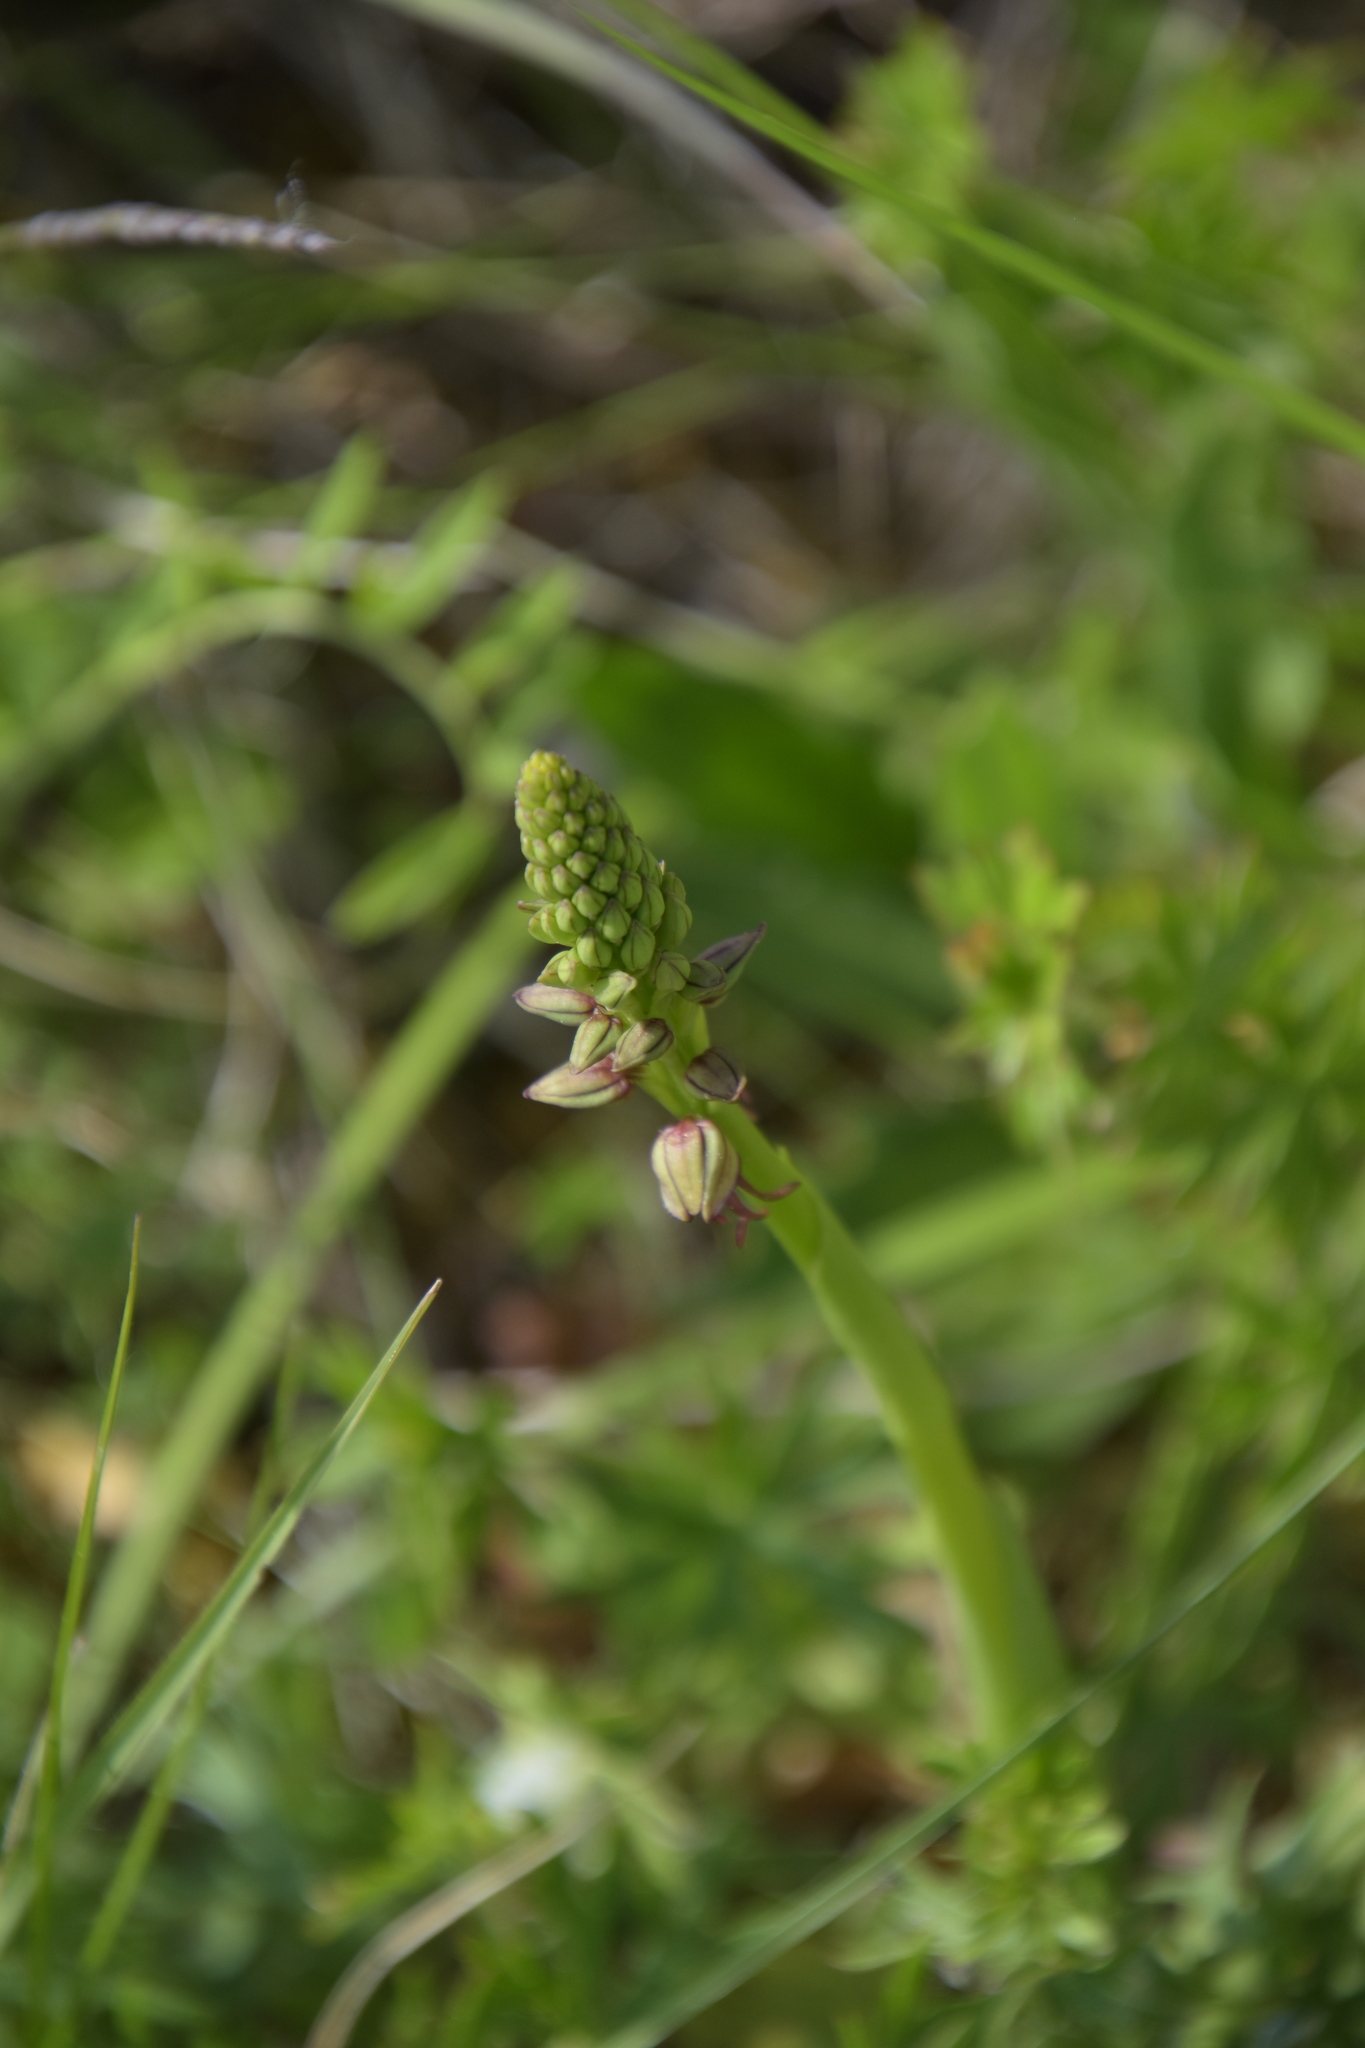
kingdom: Plantae
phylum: Tracheophyta
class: Liliopsida
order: Asparagales
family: Orchidaceae
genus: Orchis
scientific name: Orchis anthropophora
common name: Man orchid
